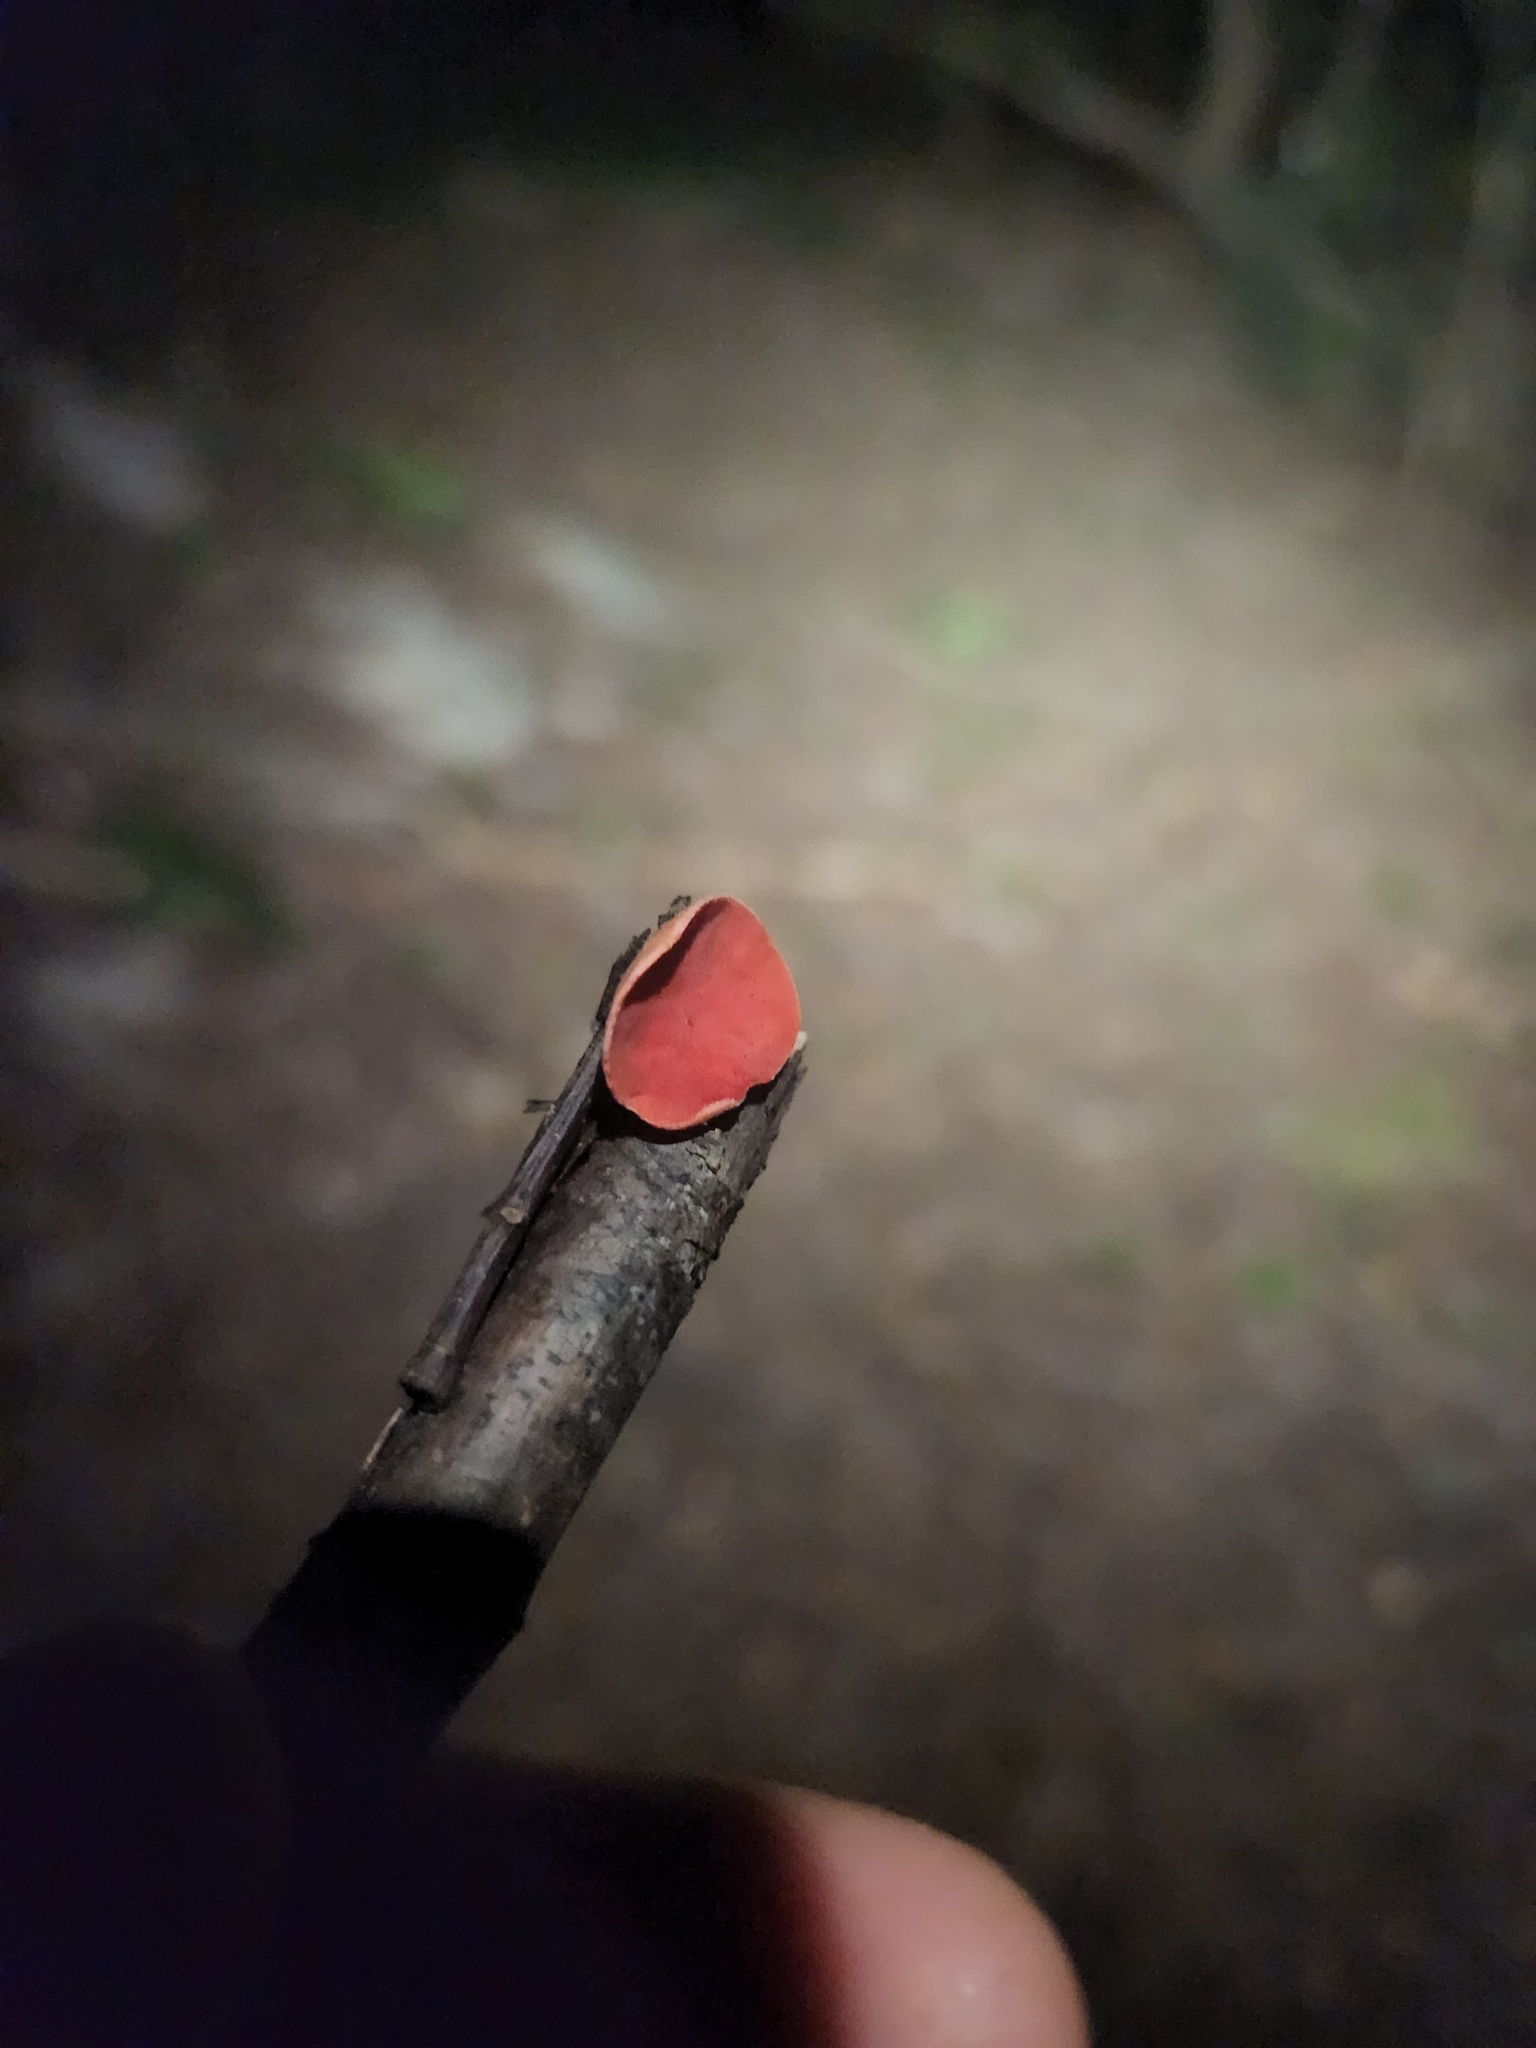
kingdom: Fungi
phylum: Ascomycota
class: Pezizomycetes
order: Pezizales
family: Sarcoscyphaceae
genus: Sarcoscypha
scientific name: Sarcoscypha occidentalis
